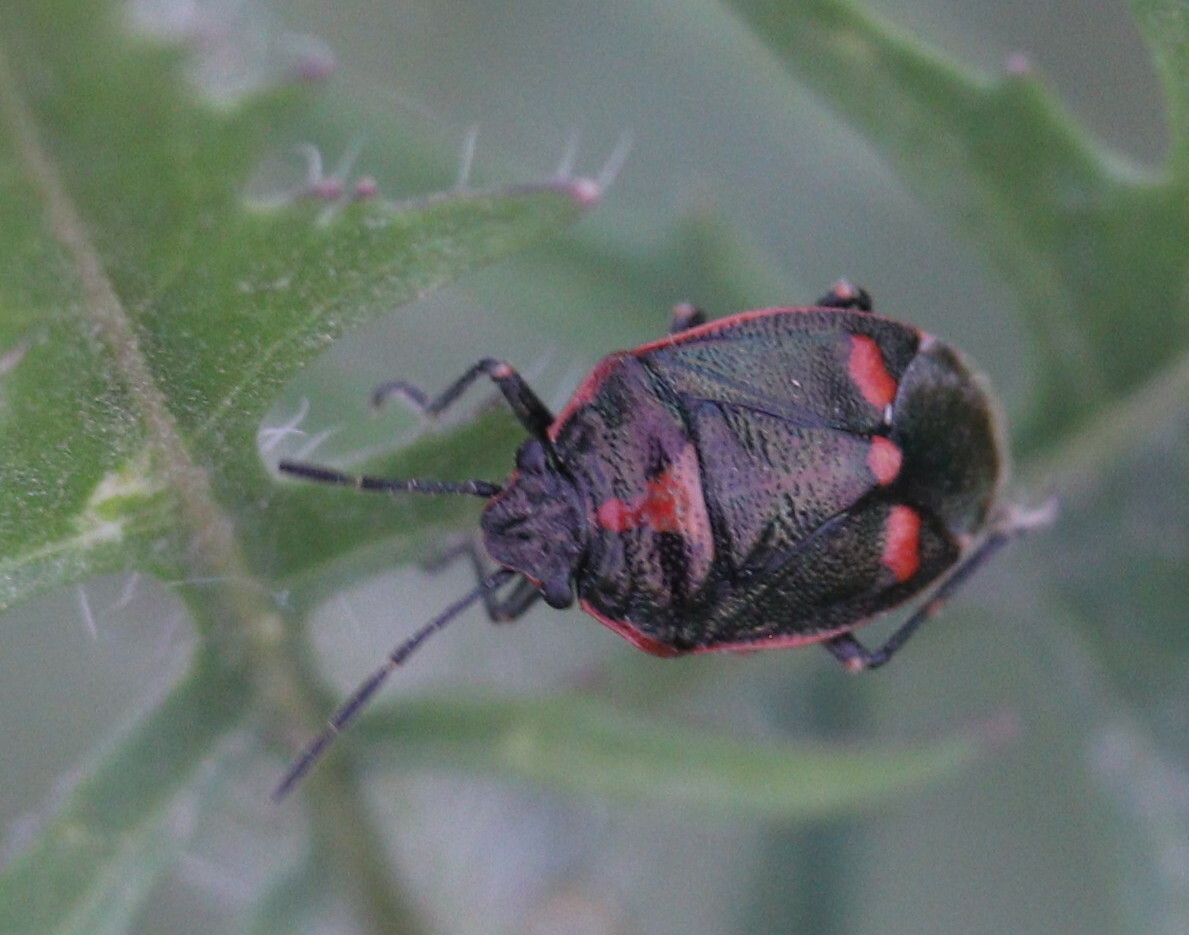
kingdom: Animalia
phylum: Arthropoda
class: Insecta
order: Hemiptera
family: Pentatomidae
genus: Eurydema
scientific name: Eurydema oleracea
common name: Cabbage bug
